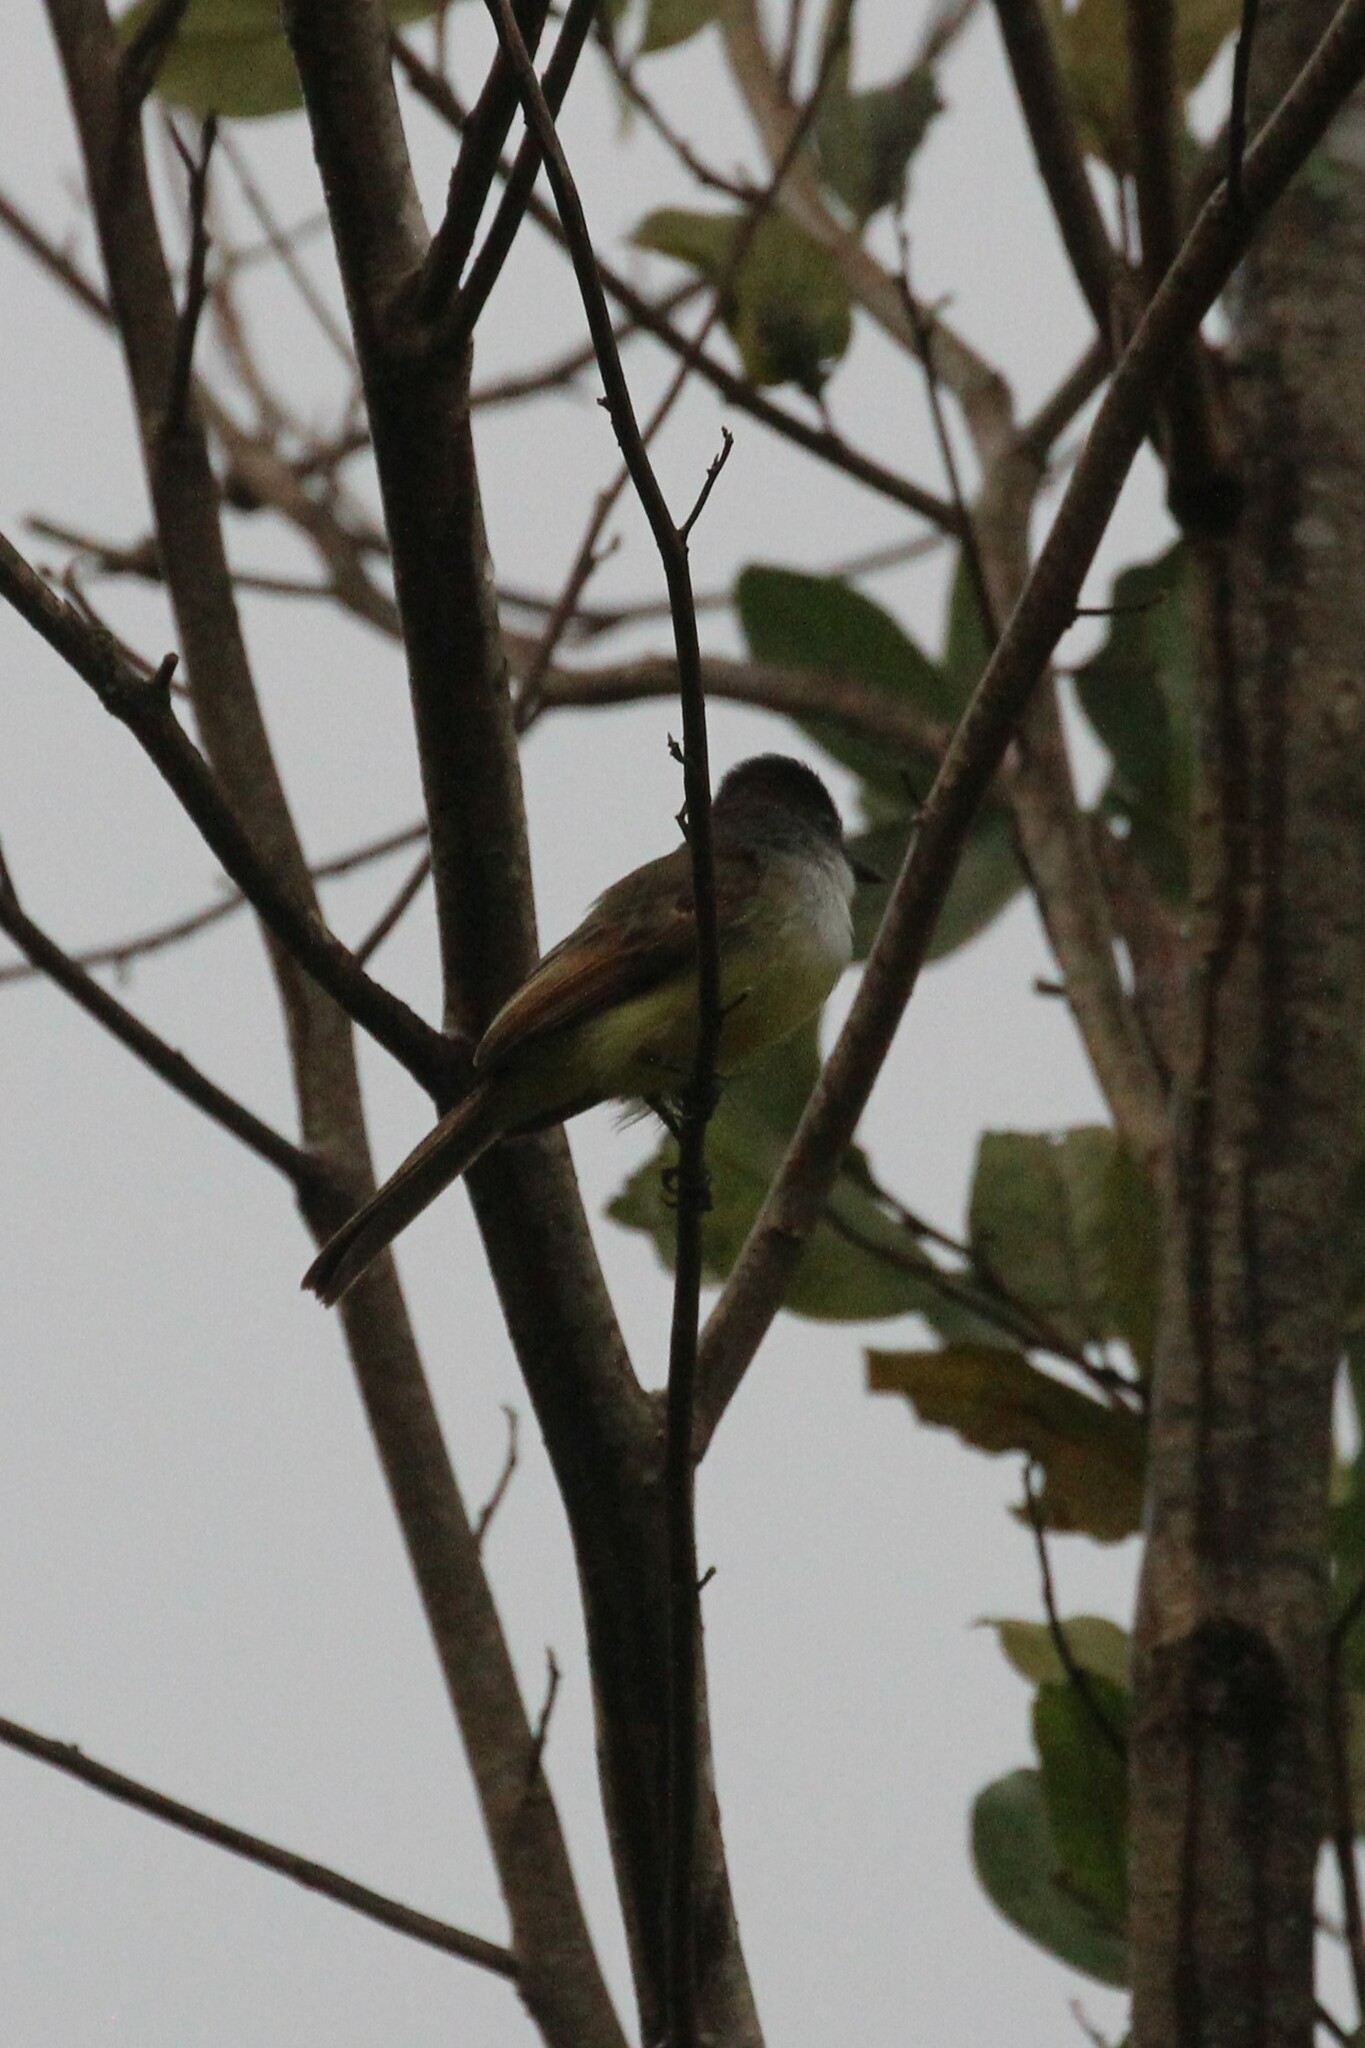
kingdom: Animalia
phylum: Chordata
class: Aves
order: Passeriformes
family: Tyrannidae
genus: Myiarchus
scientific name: Myiarchus tuberculifer
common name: Dusky-capped flycatcher
